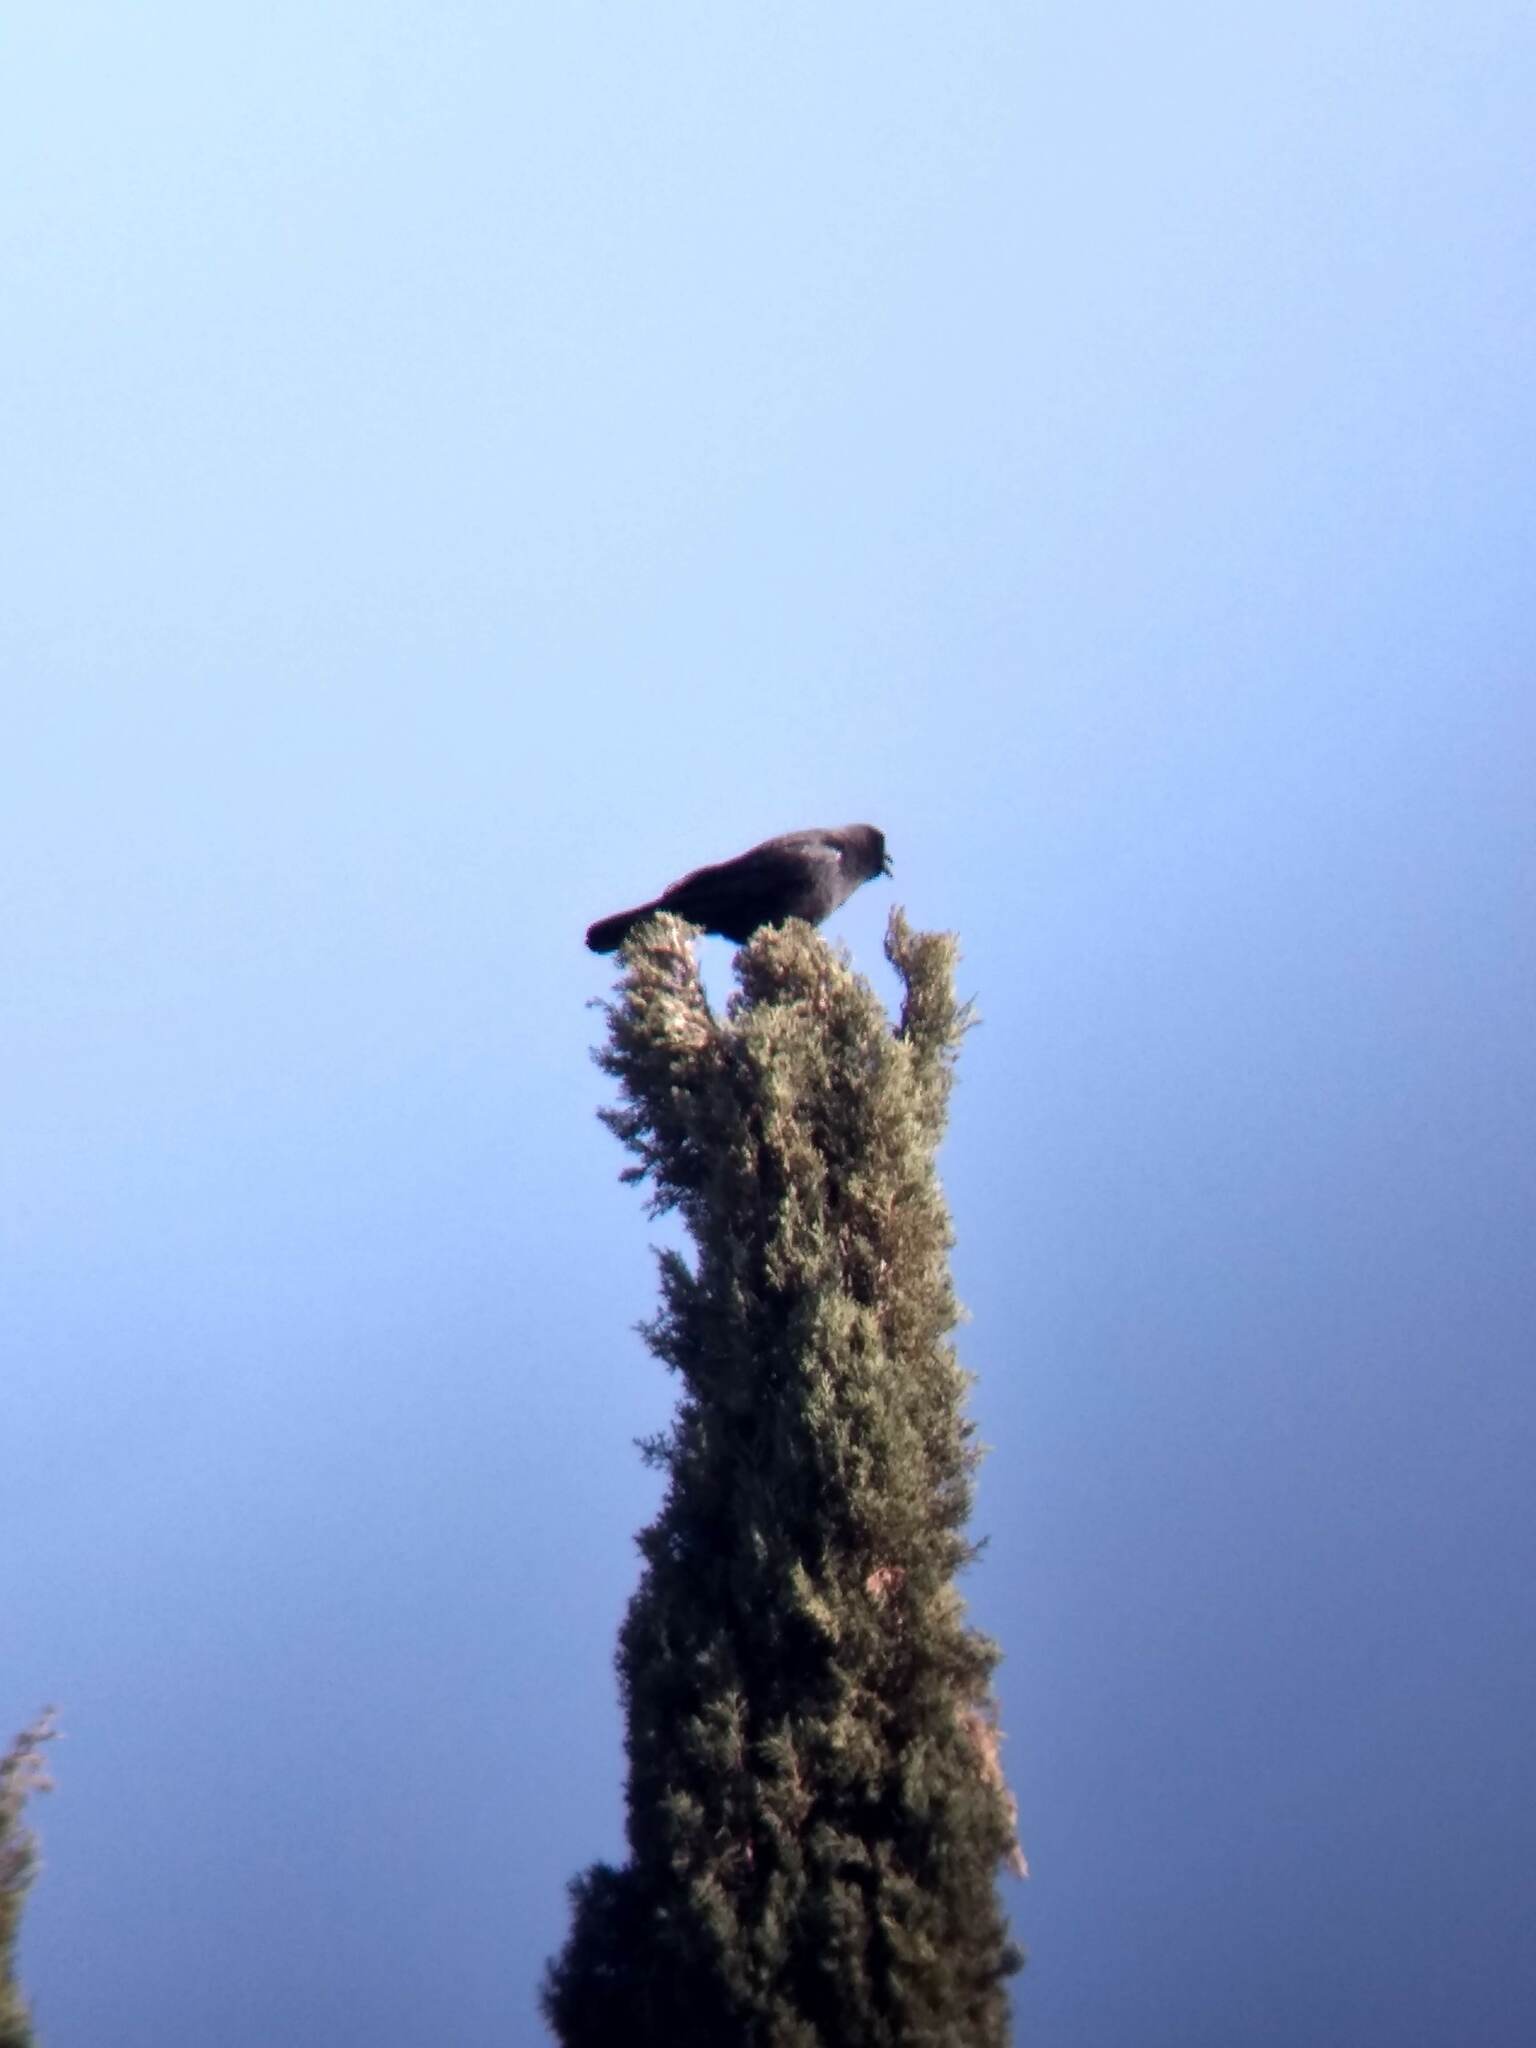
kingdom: Animalia
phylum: Chordata
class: Aves
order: Passeriformes
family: Corvidae
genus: Corvus
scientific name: Corvus brachyrhynchos
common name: American crow
